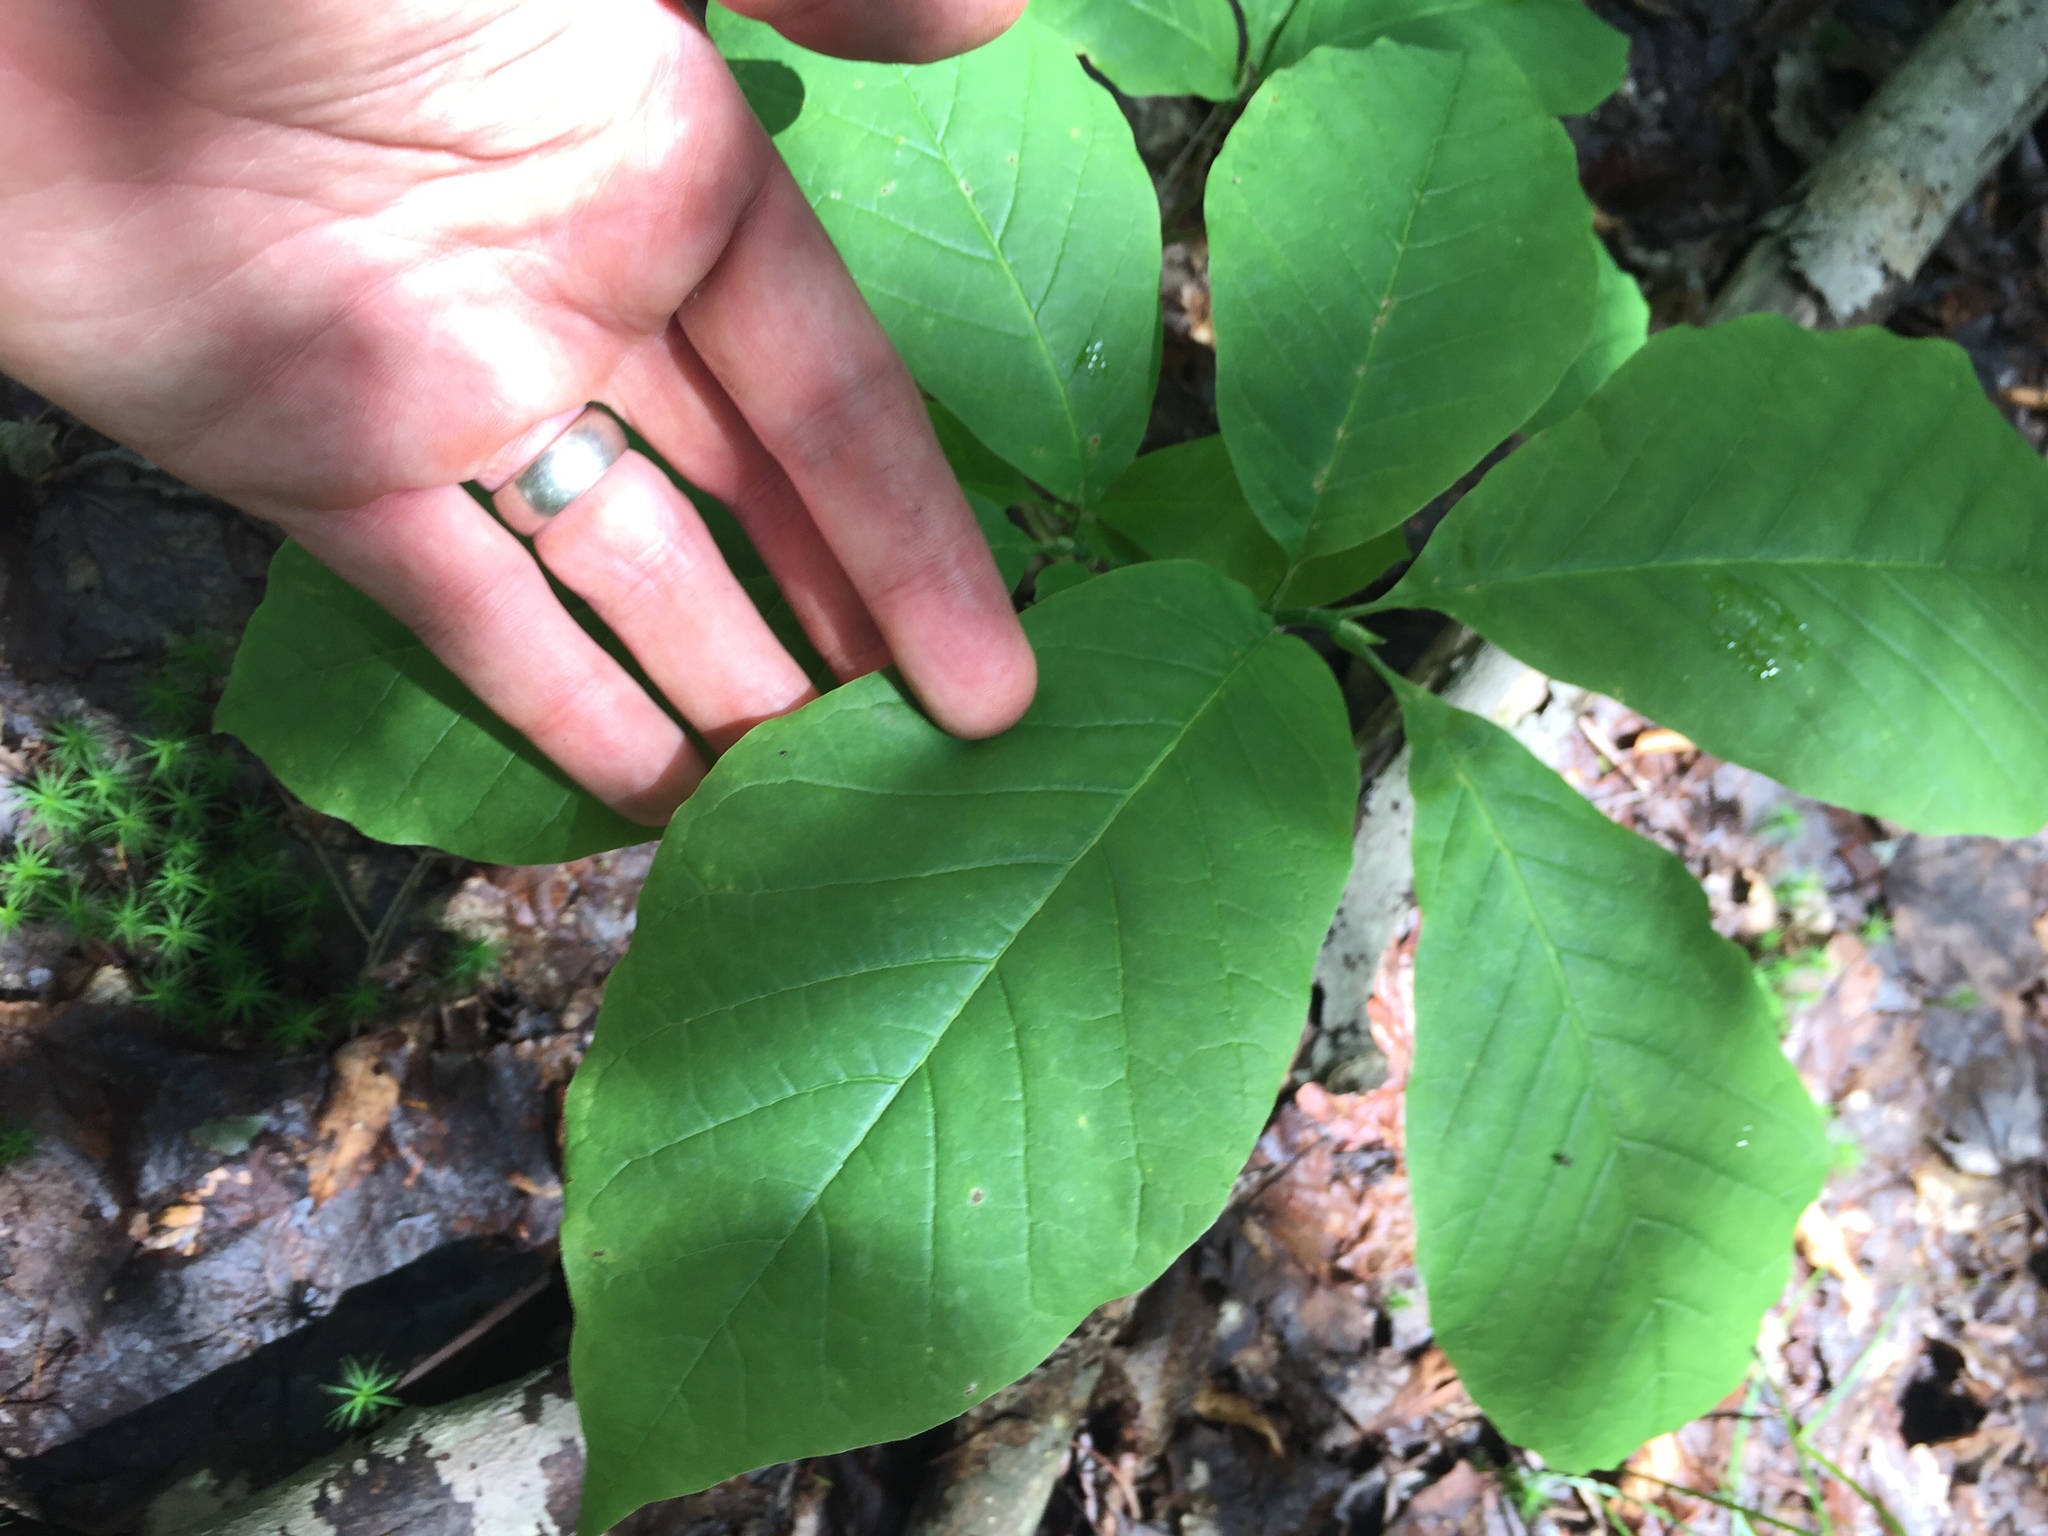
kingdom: Plantae
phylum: Tracheophyta
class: Magnoliopsida
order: Magnoliales
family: Magnoliaceae
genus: Magnolia
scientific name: Magnolia acuminata
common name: Cucumber magnolia
